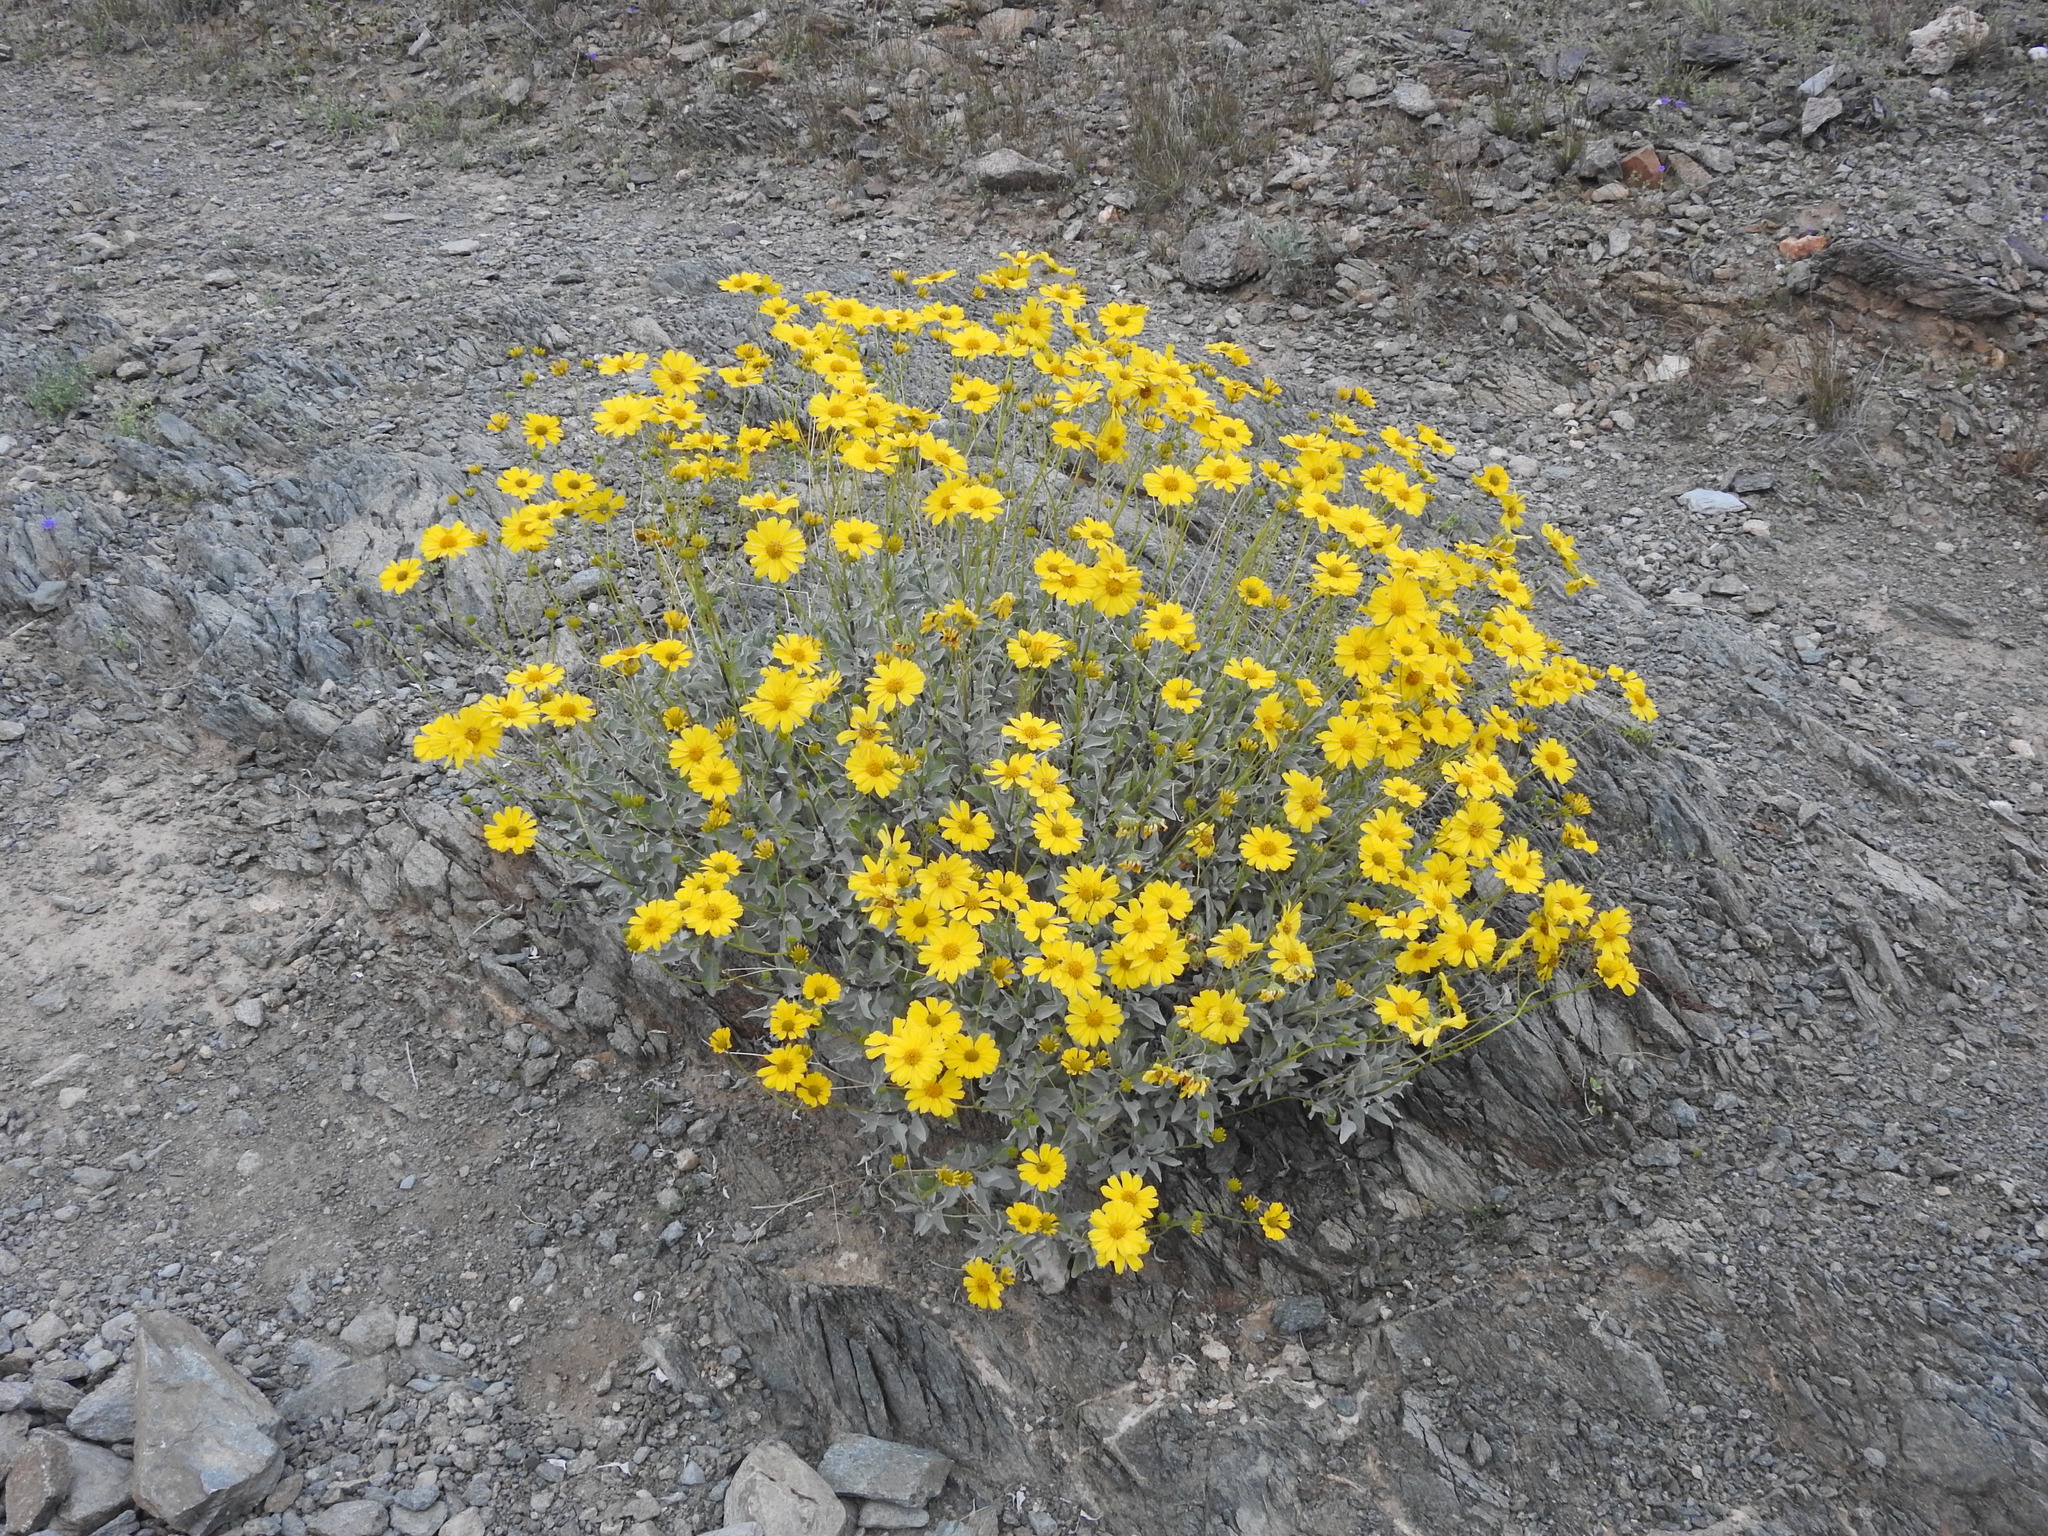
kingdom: Plantae
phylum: Tracheophyta
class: Magnoliopsida
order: Asterales
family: Asteraceae
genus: Encelia
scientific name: Encelia farinosa
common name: Brittlebush
